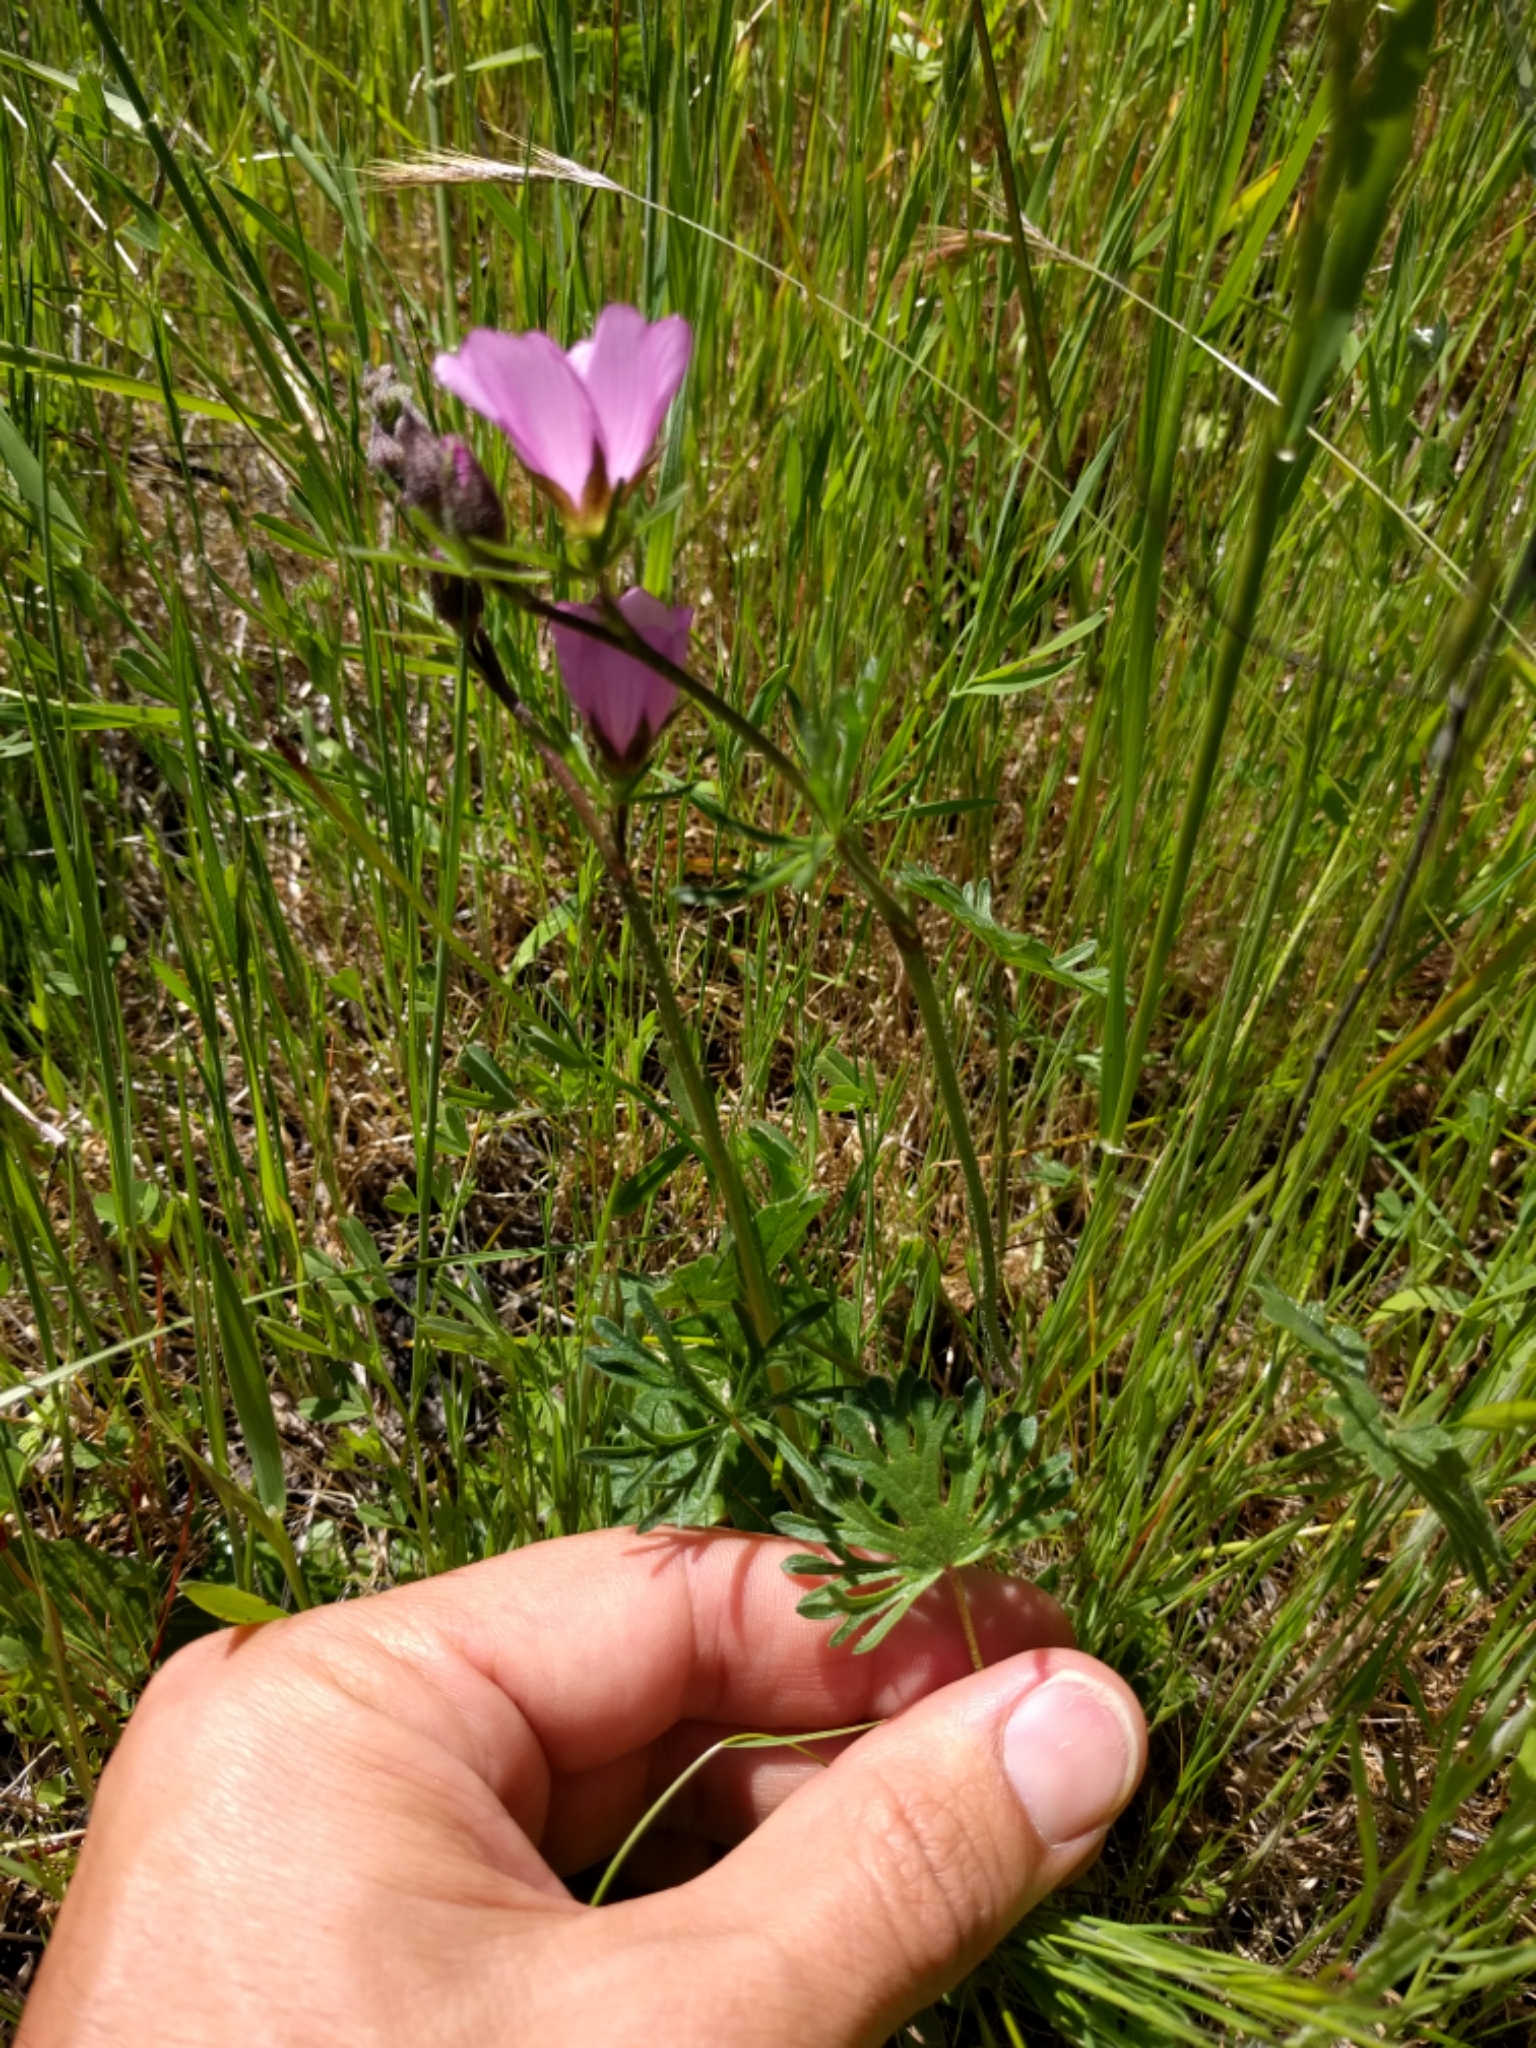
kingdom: Plantae
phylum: Tracheophyta
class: Magnoliopsida
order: Malvales
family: Malvaceae
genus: Sidalcea
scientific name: Sidalcea malviflora
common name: Greek mallow
